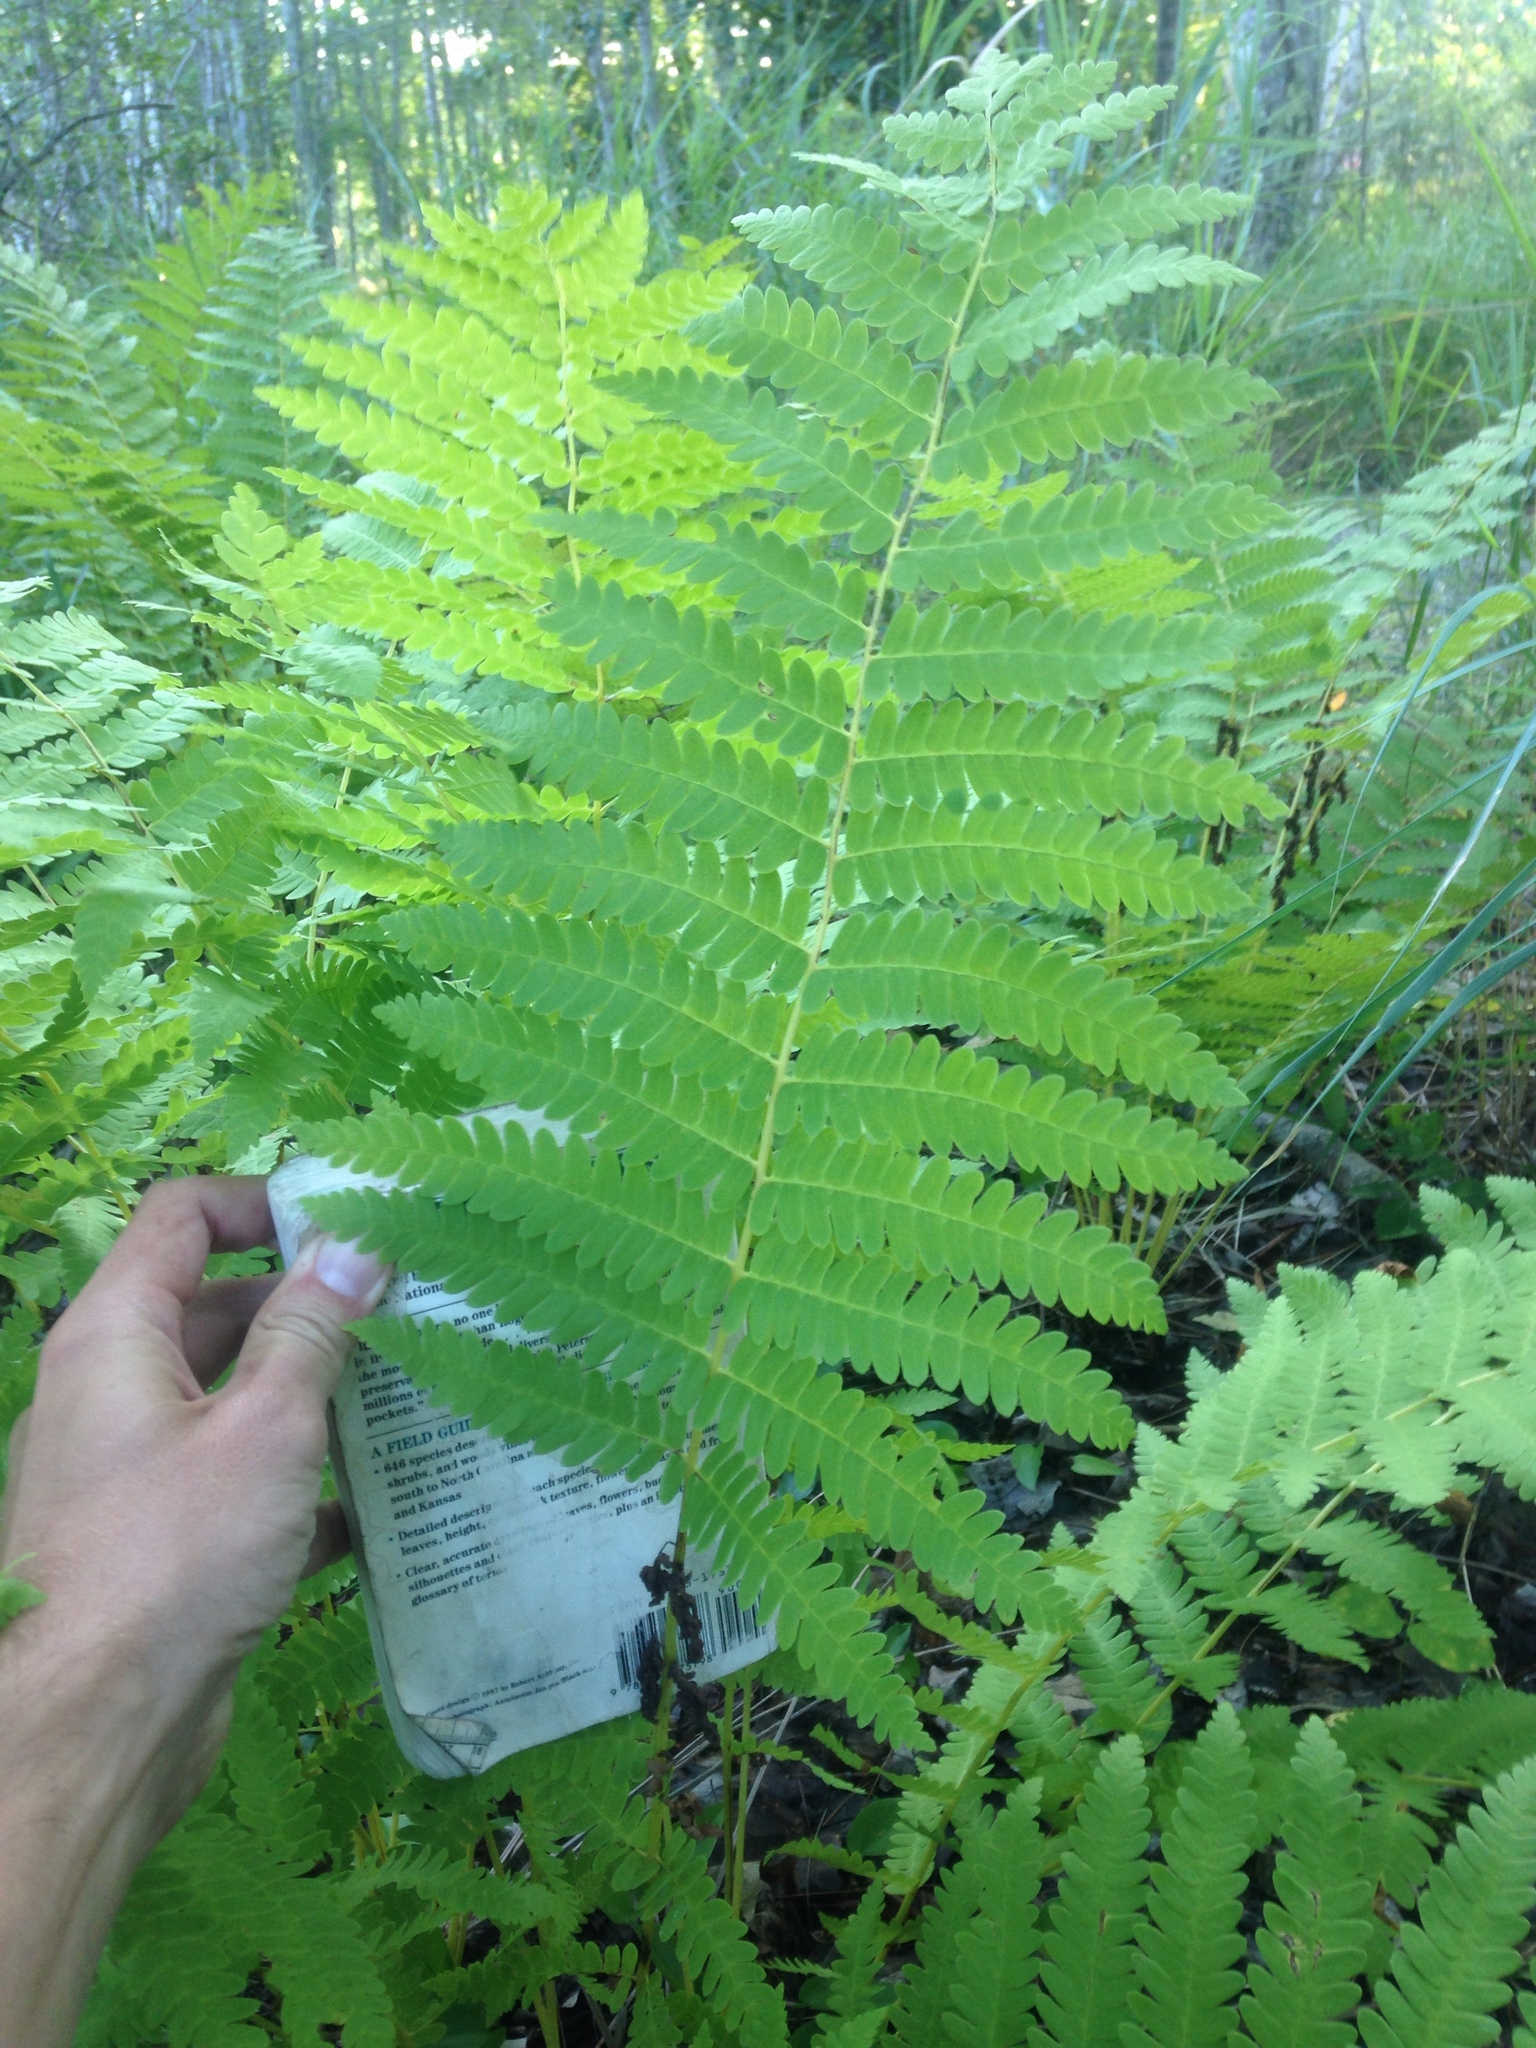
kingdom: Plantae
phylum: Tracheophyta
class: Polypodiopsida
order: Osmundales
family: Osmundaceae
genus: Claytosmunda
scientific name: Claytosmunda claytoniana
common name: Clayton's fern
